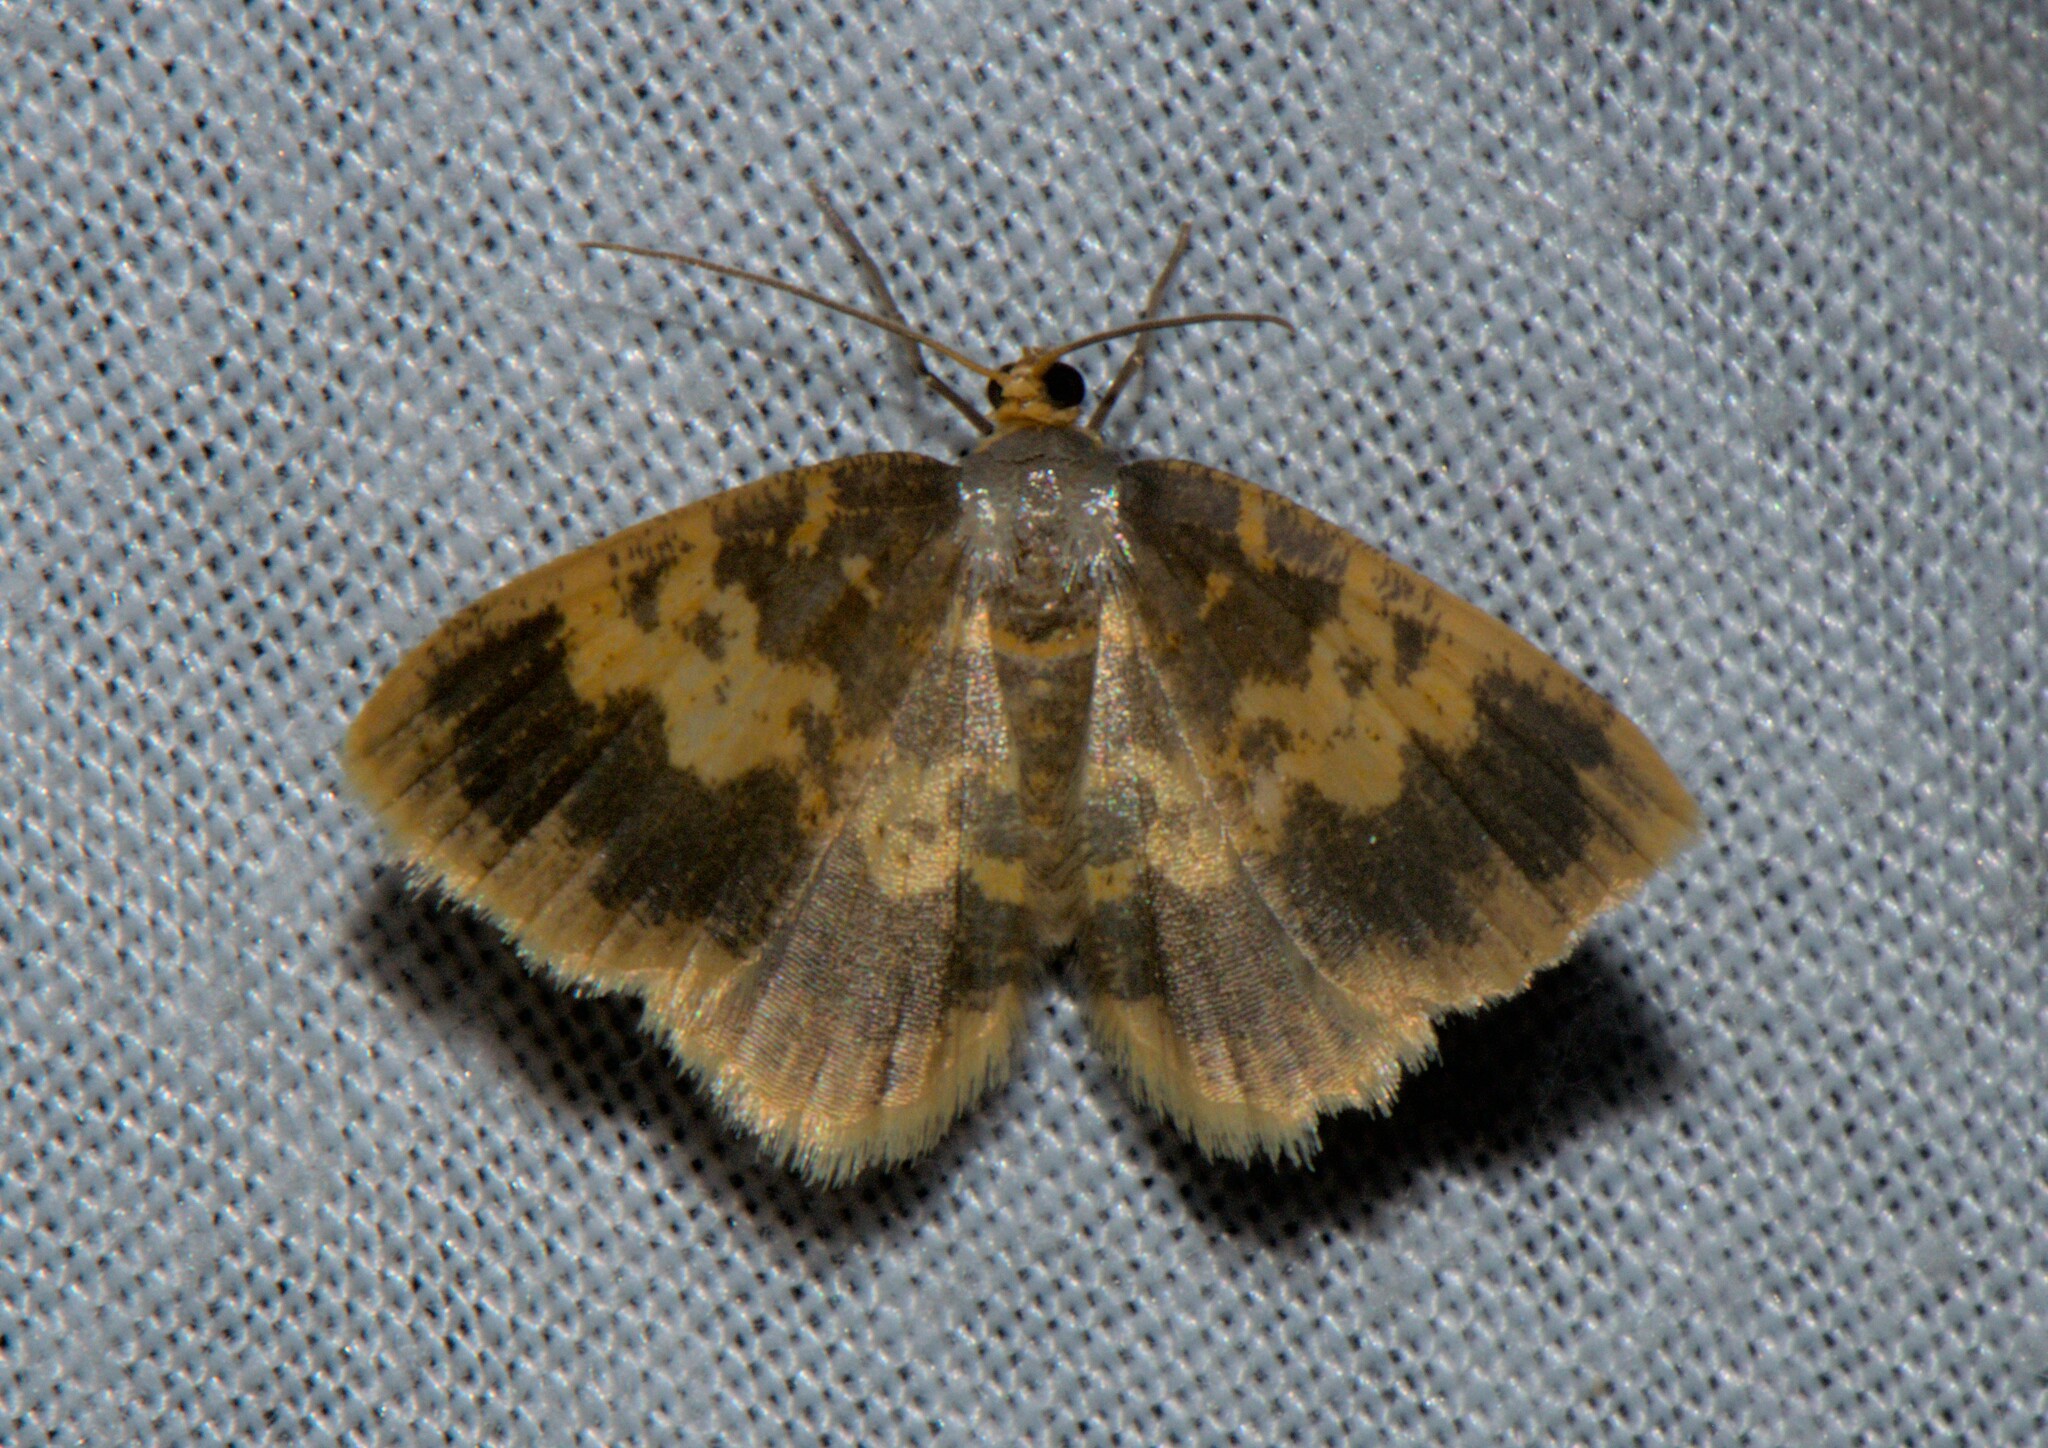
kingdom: Animalia
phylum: Arthropoda
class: Insecta
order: Lepidoptera
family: Geometridae
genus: Peratophyga
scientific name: Peratophyga hyalinata
